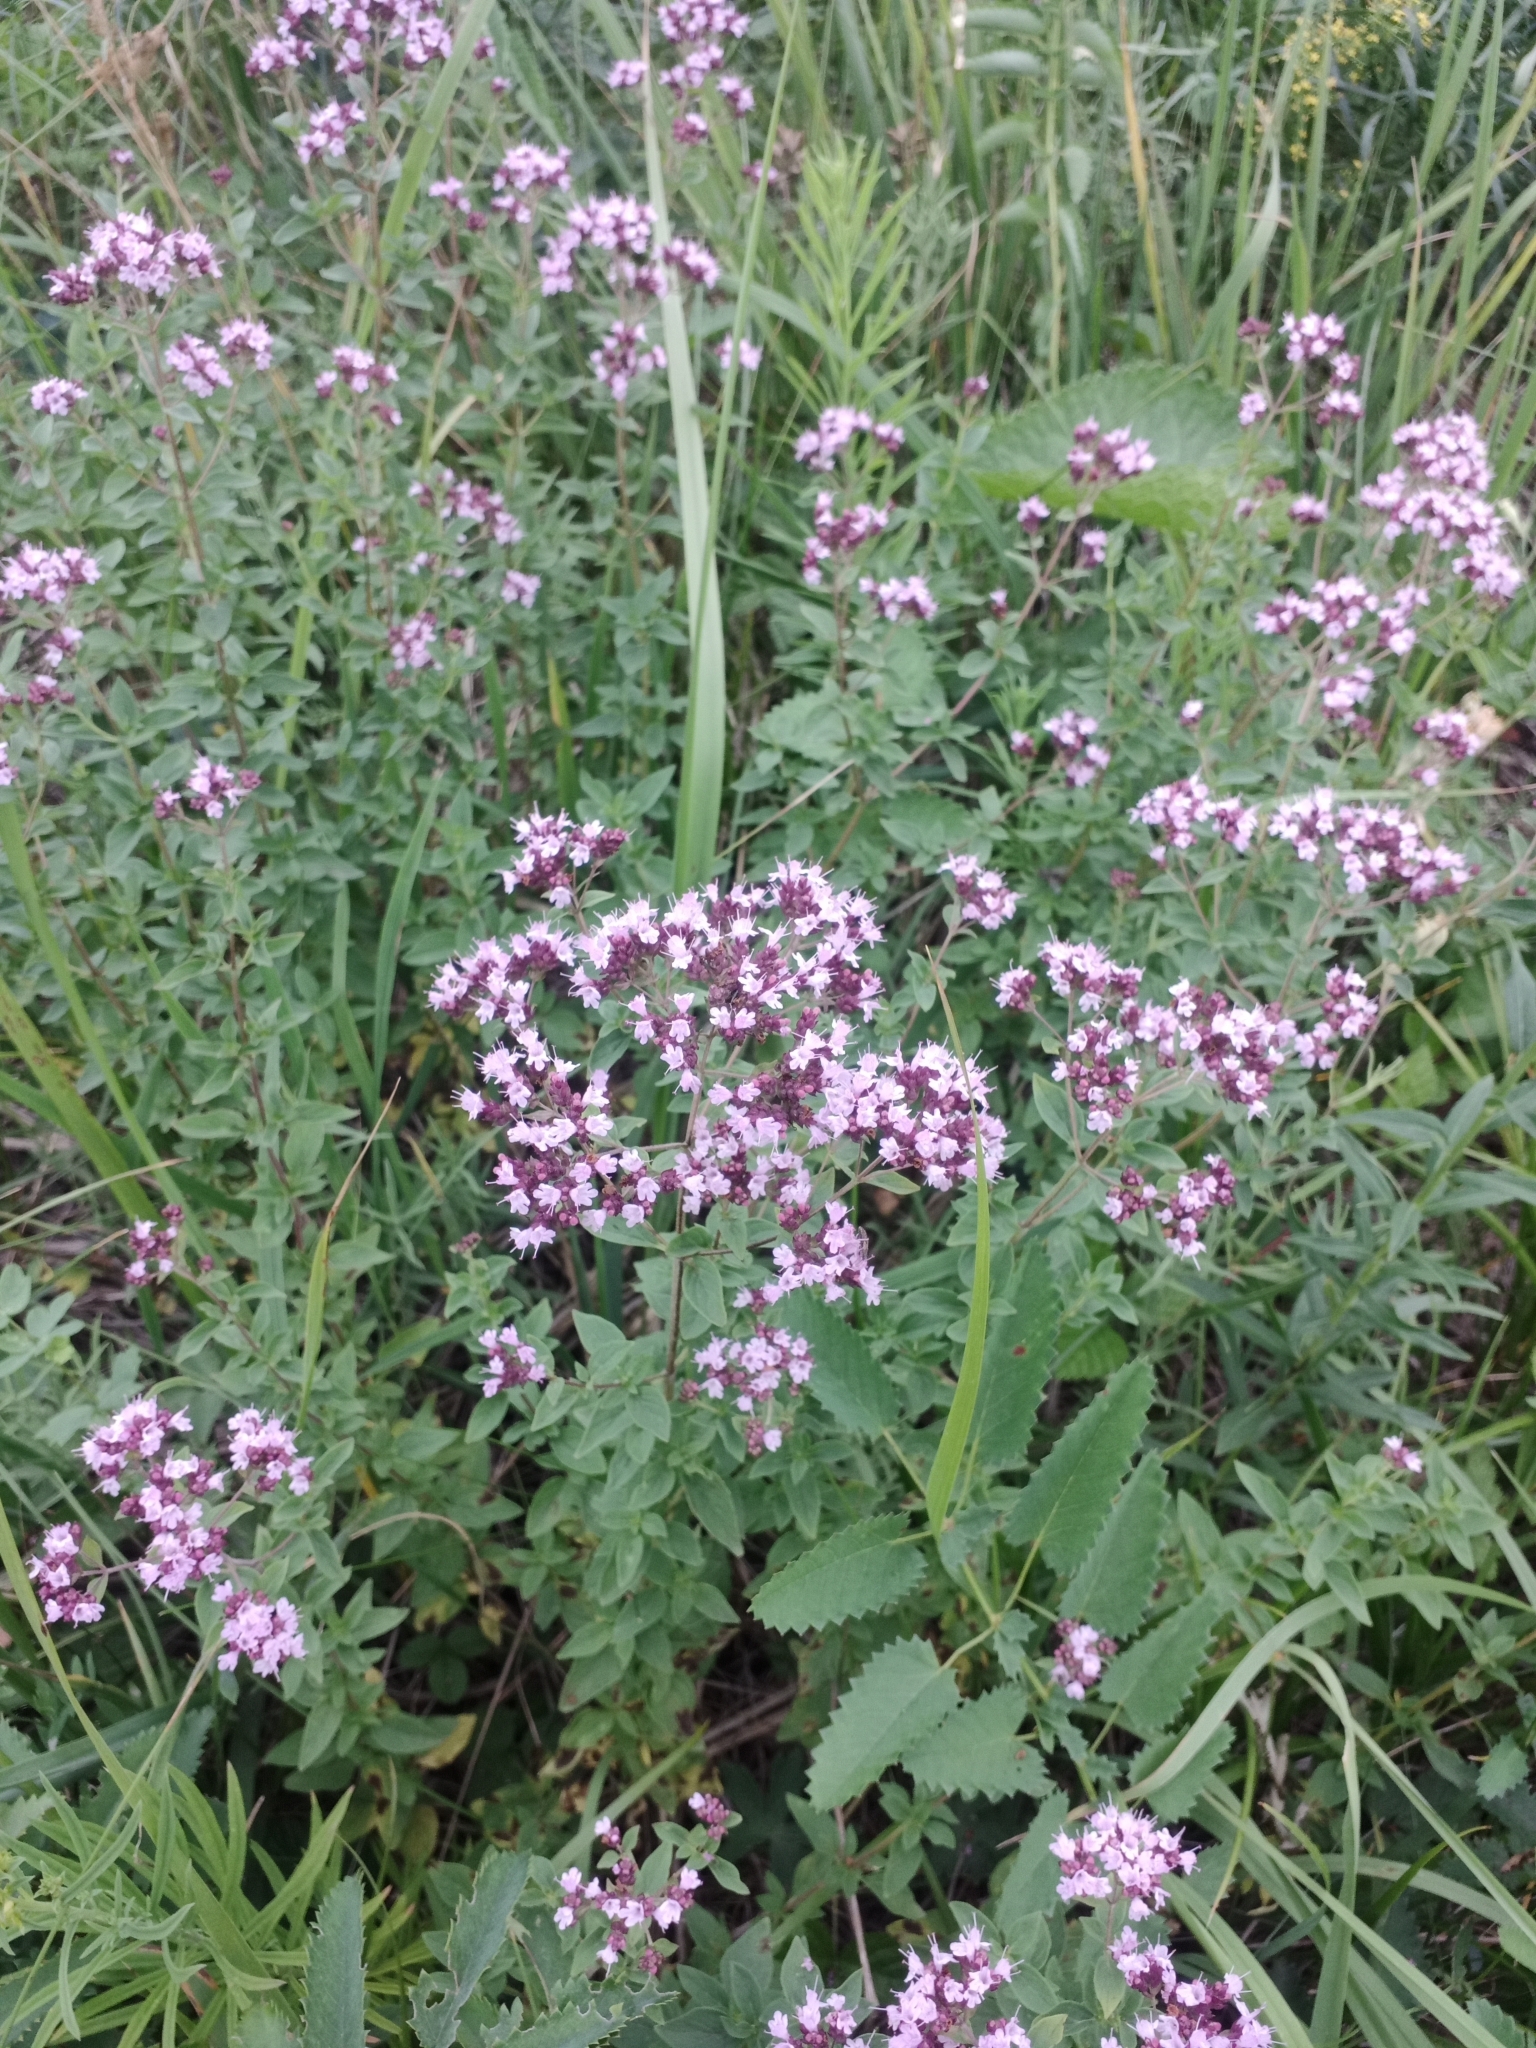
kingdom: Plantae
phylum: Tracheophyta
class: Magnoliopsida
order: Lamiales
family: Lamiaceae
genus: Origanum
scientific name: Origanum vulgare
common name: Wild marjoram
